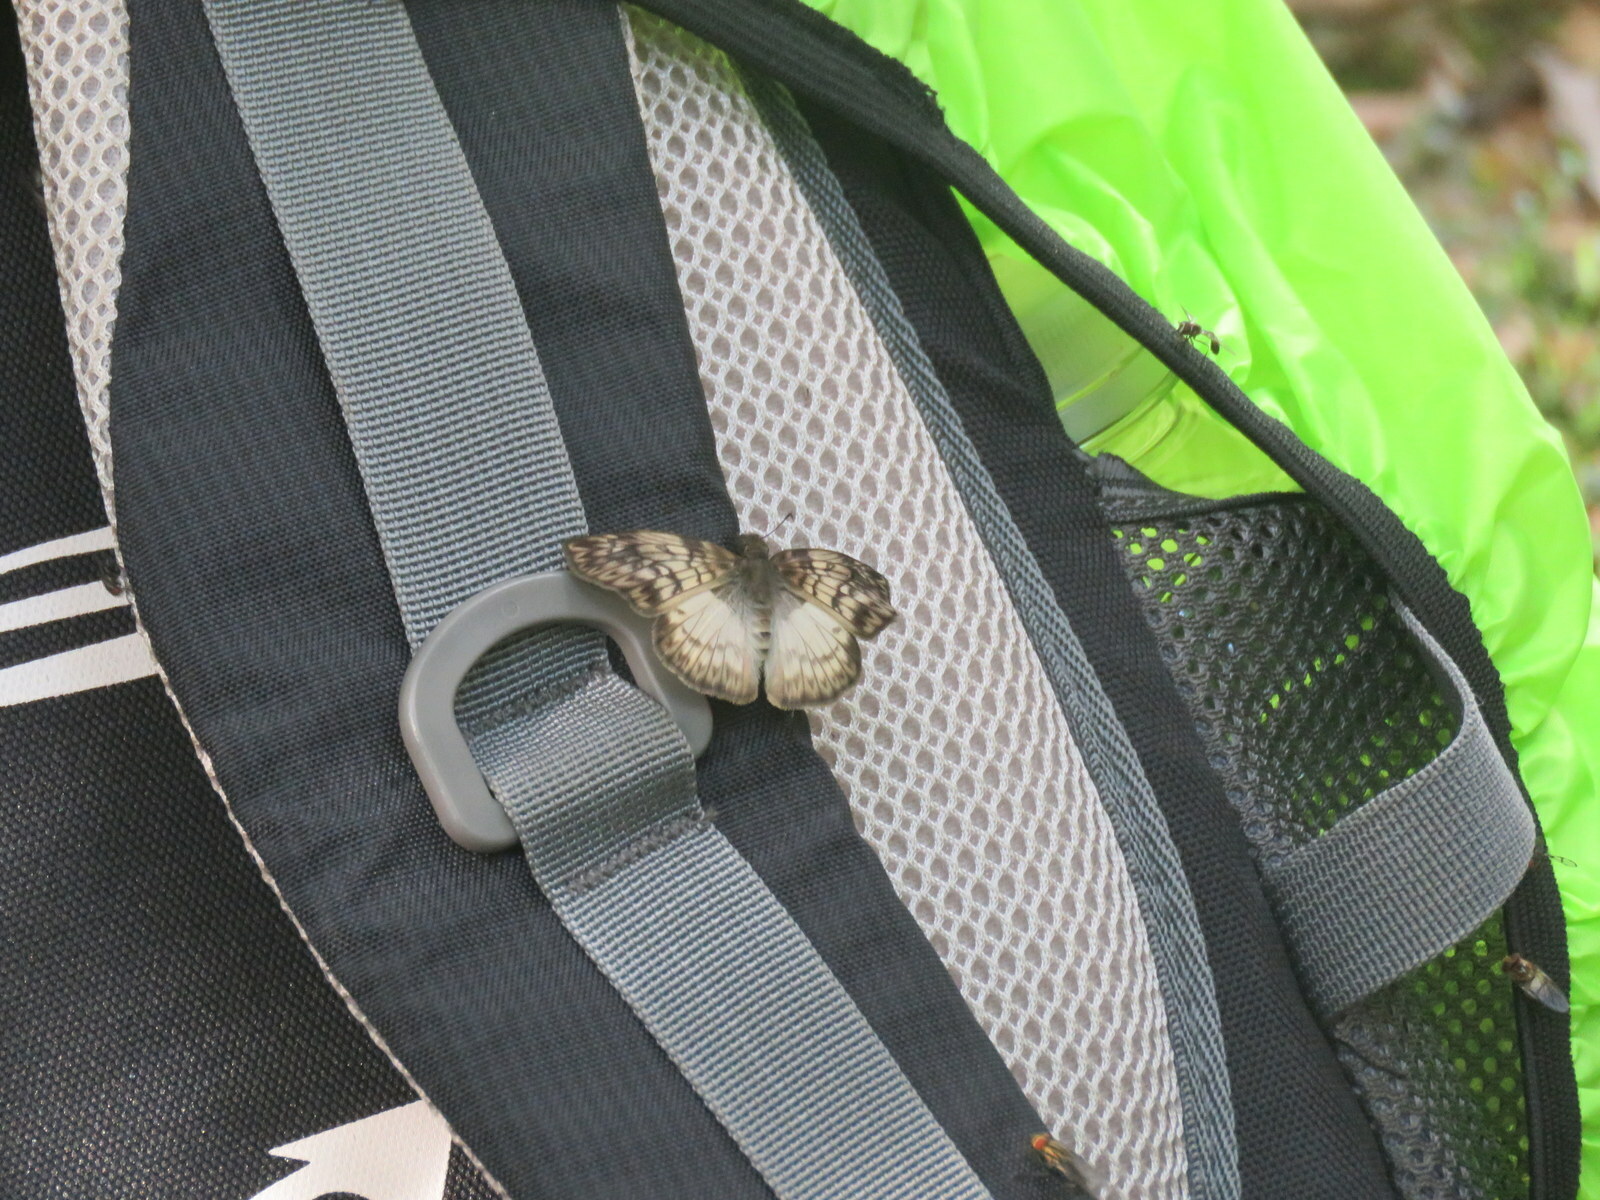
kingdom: Animalia
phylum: Arthropoda
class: Insecta
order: Lepidoptera
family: Hesperiidae
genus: Mylon
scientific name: Mylon maimon
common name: Common mylon
